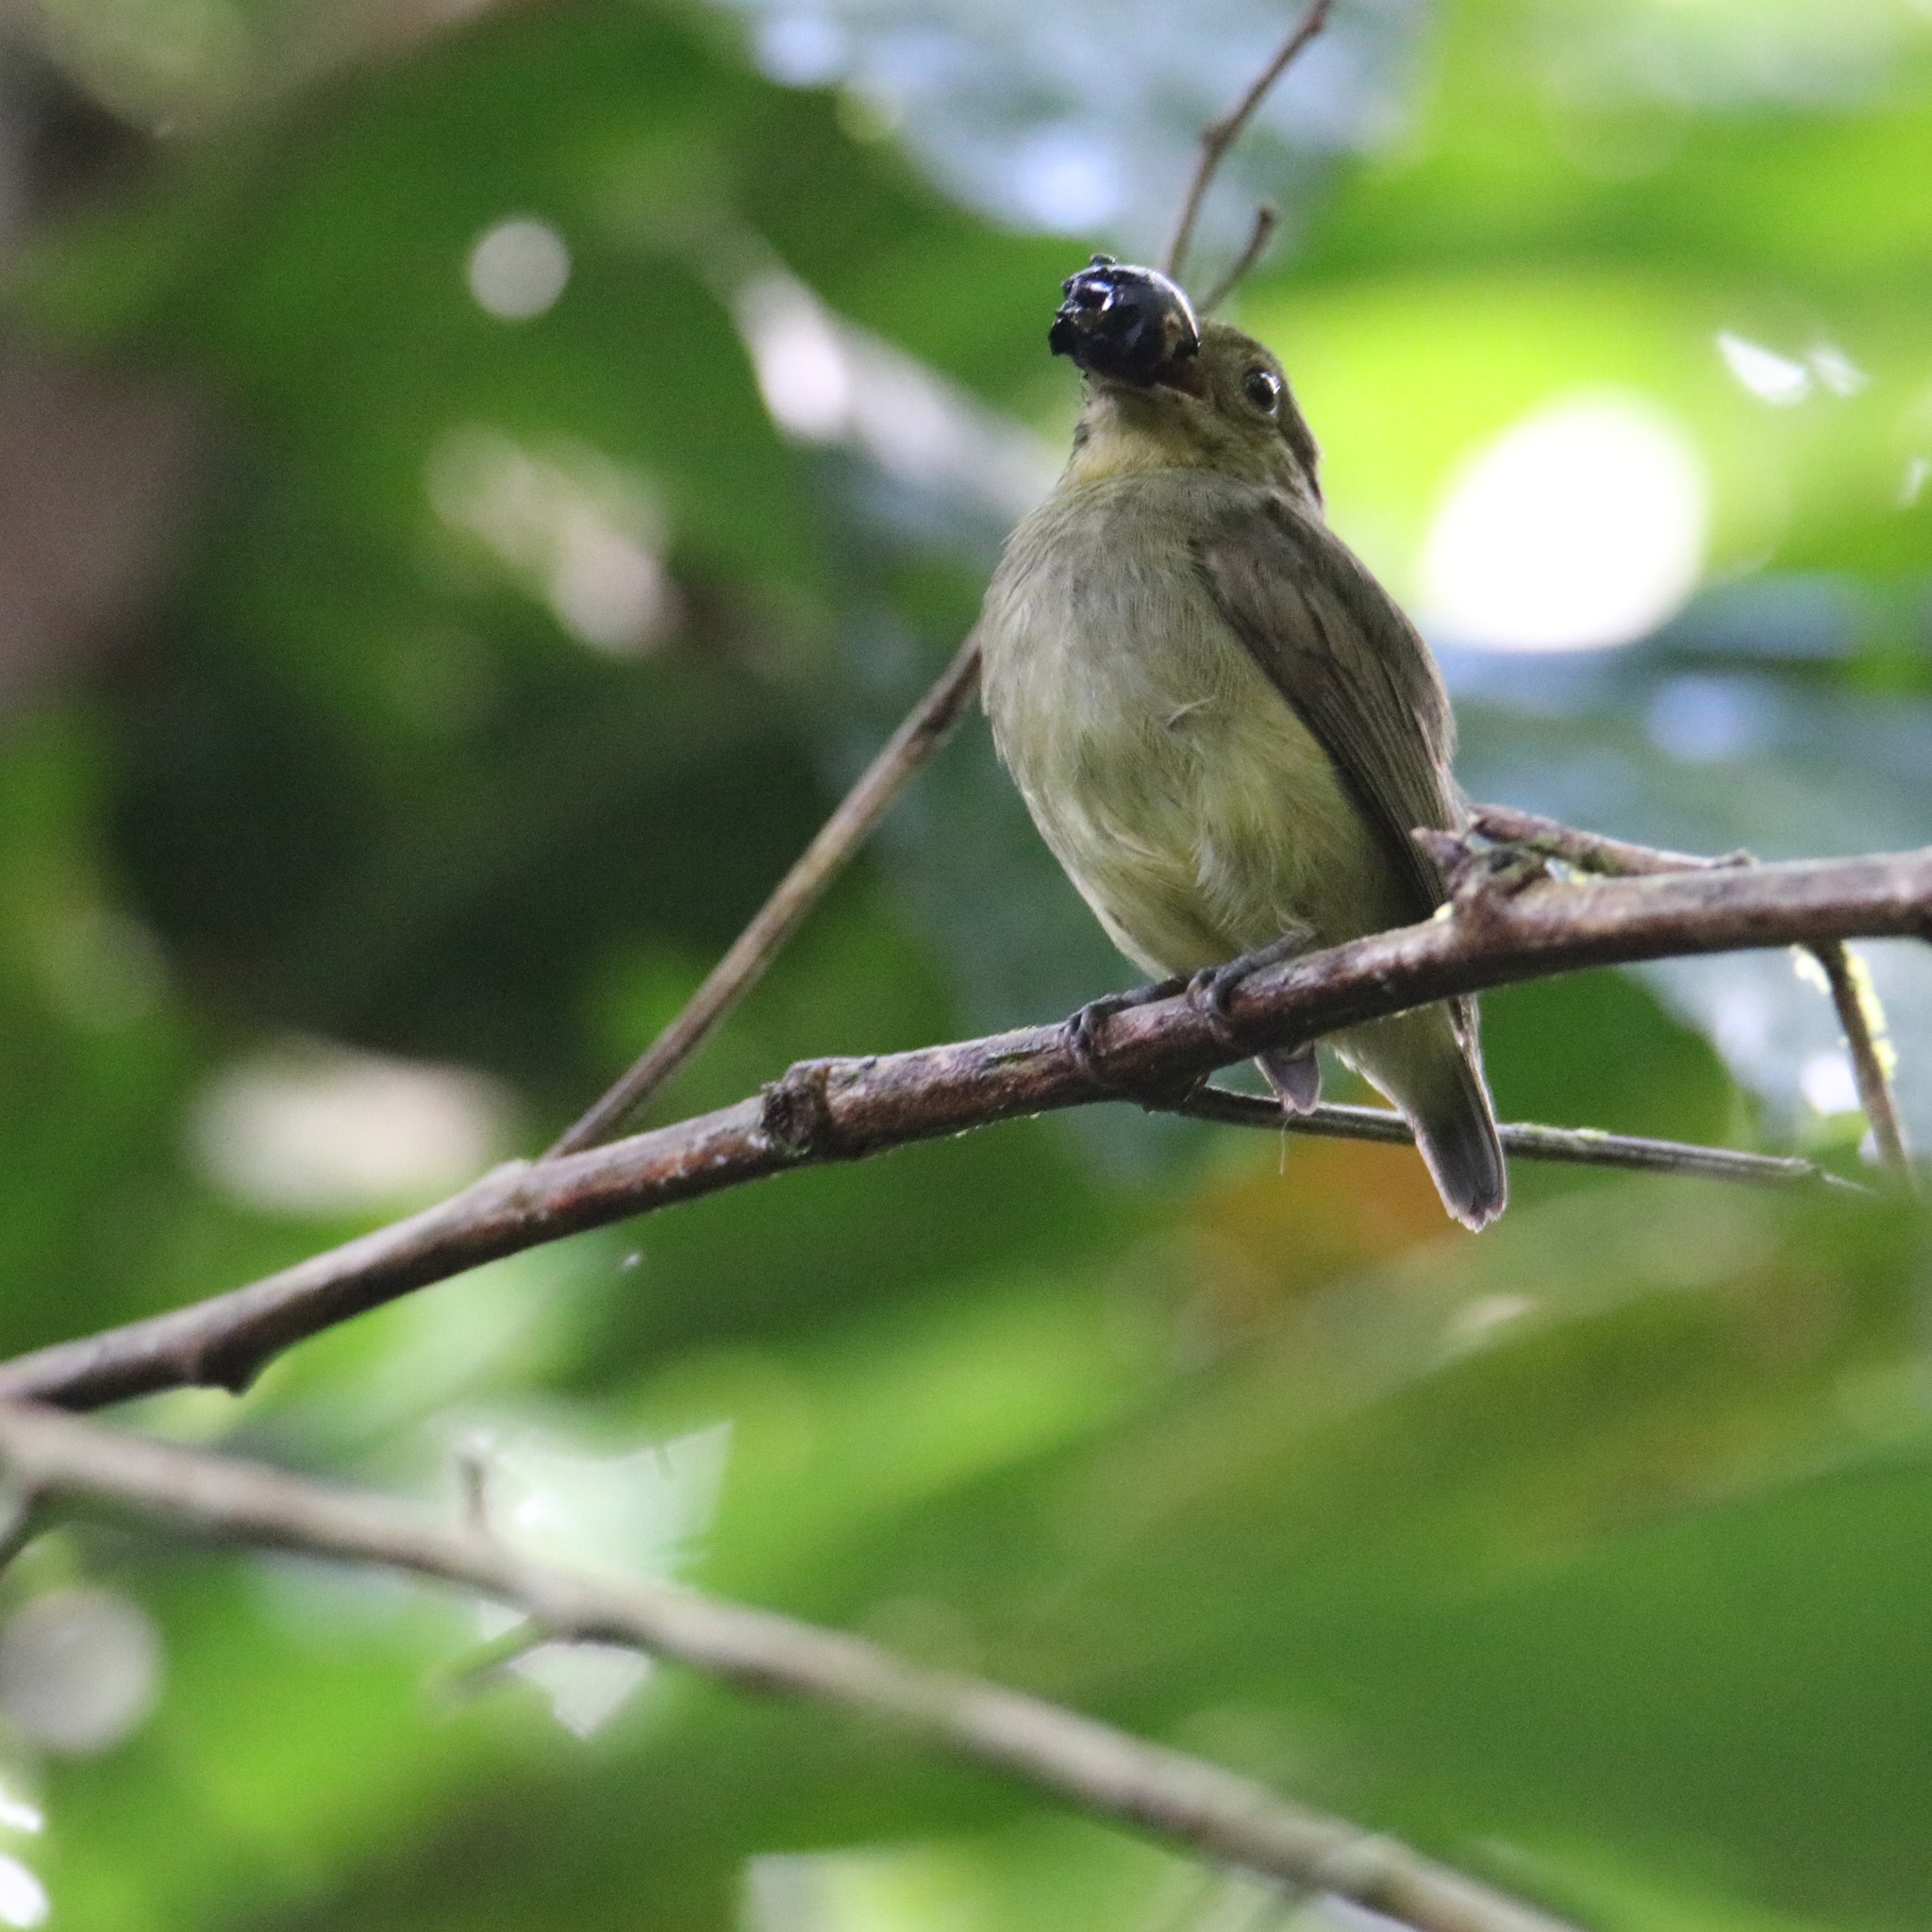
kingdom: Animalia
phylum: Chordata
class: Aves
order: Passeriformes
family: Pipridae
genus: Pipra
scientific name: Pipra mentalis
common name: Red-capped manakin
